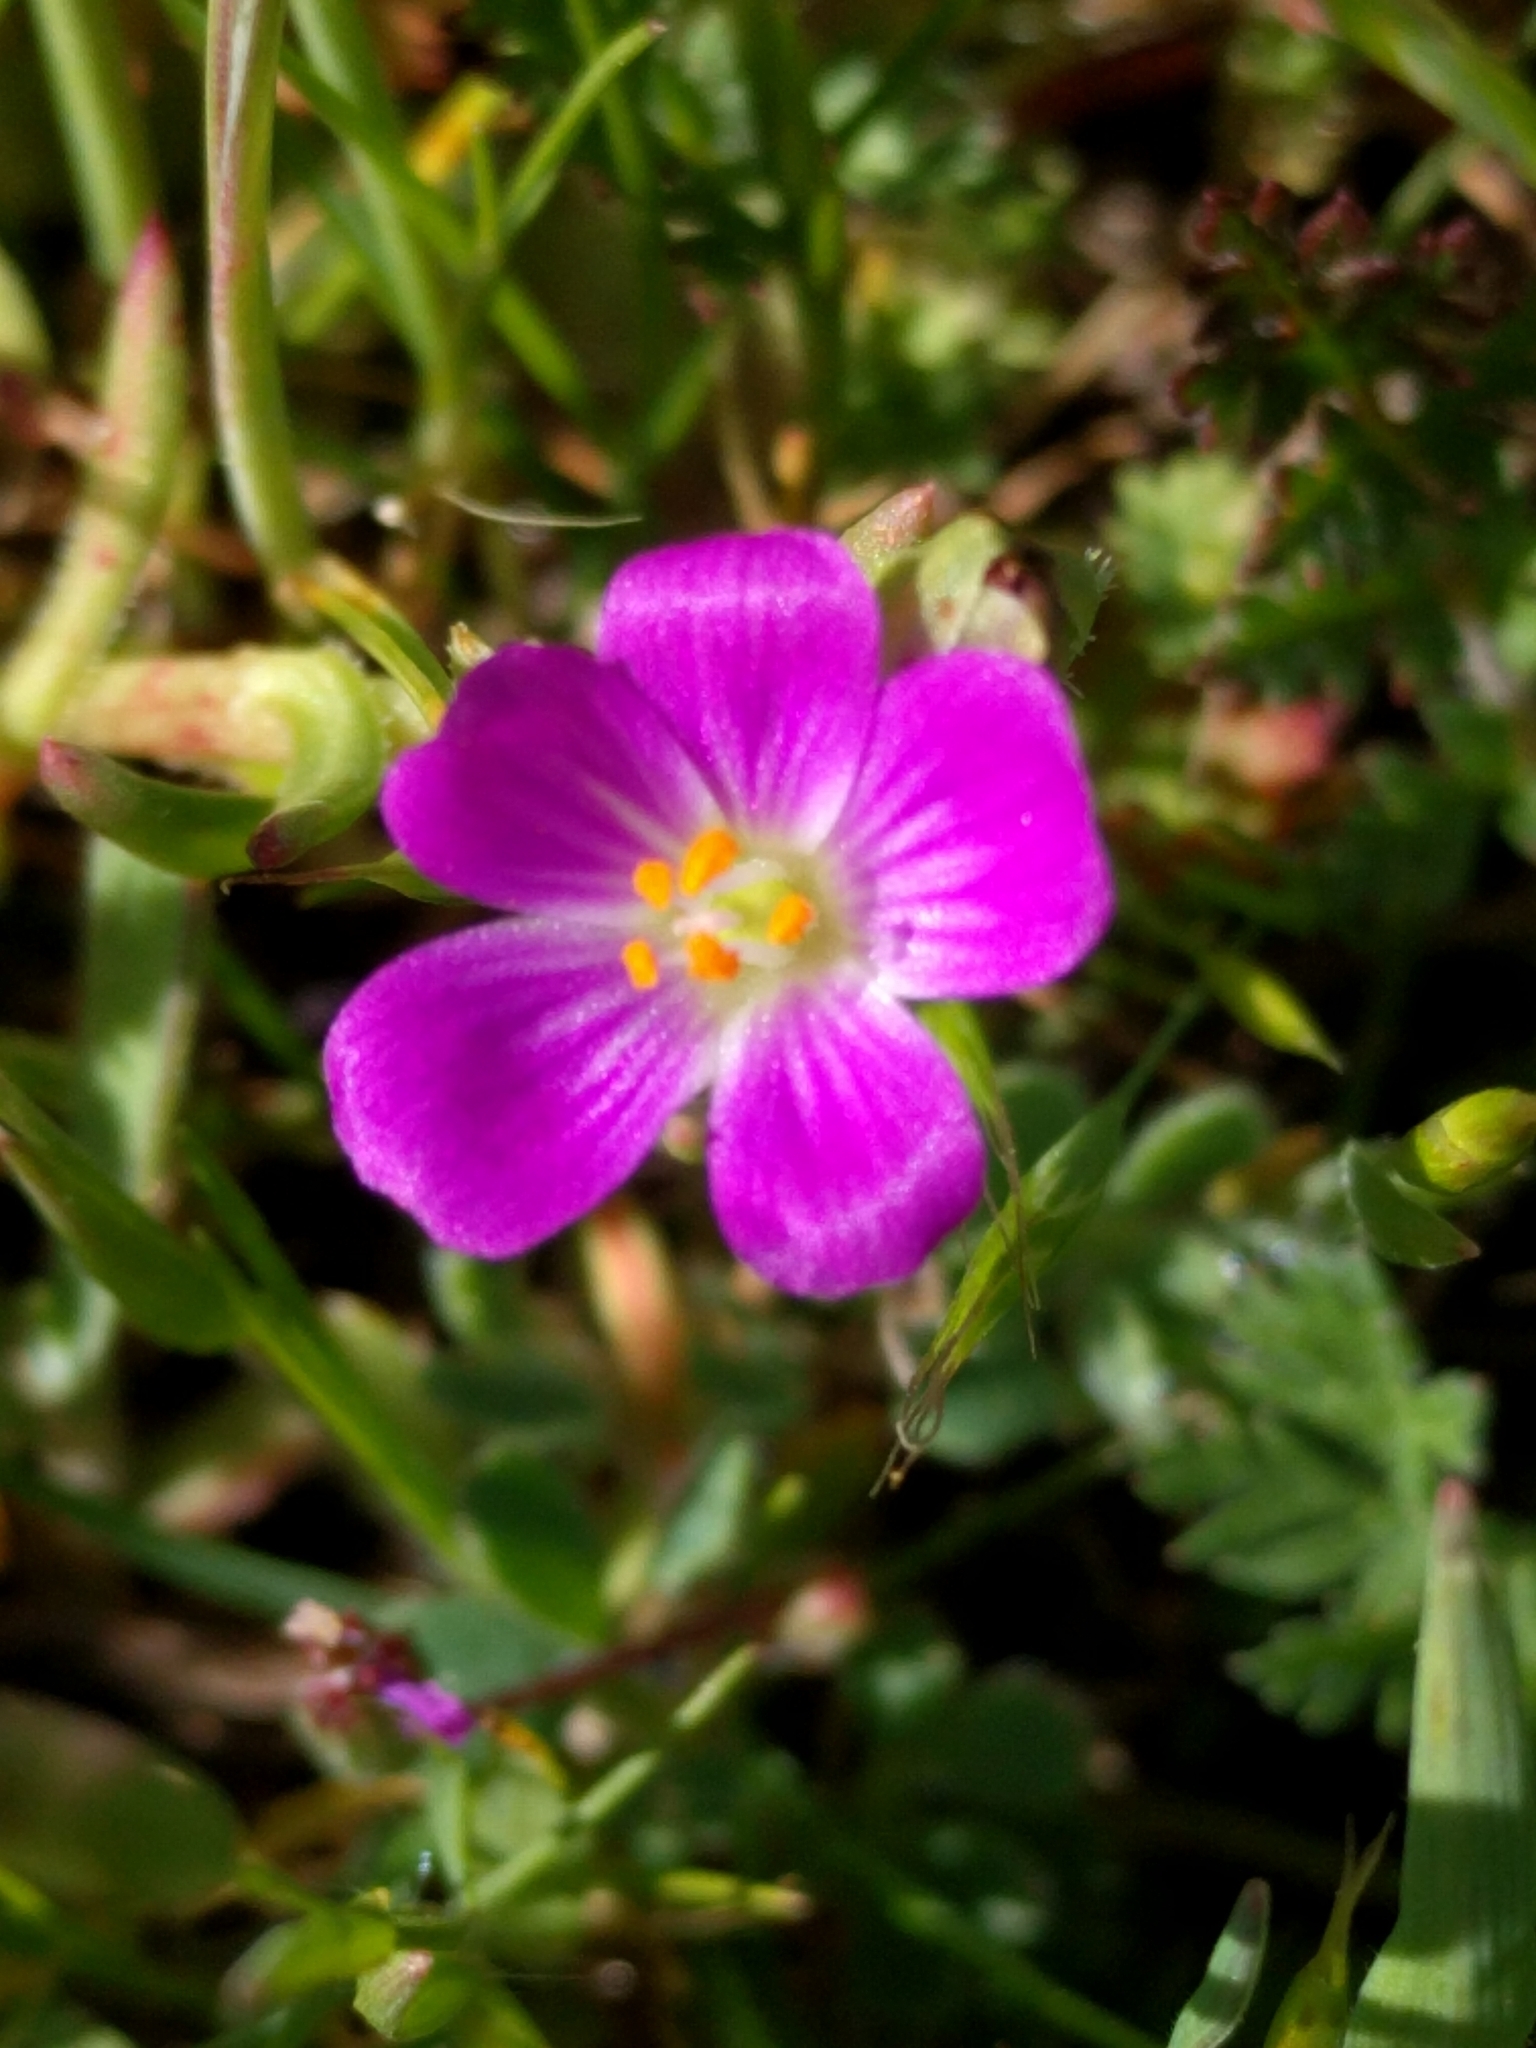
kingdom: Plantae
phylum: Tracheophyta
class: Magnoliopsida
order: Caryophyllales
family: Montiaceae
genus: Calandrinia
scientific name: Calandrinia menziesii
